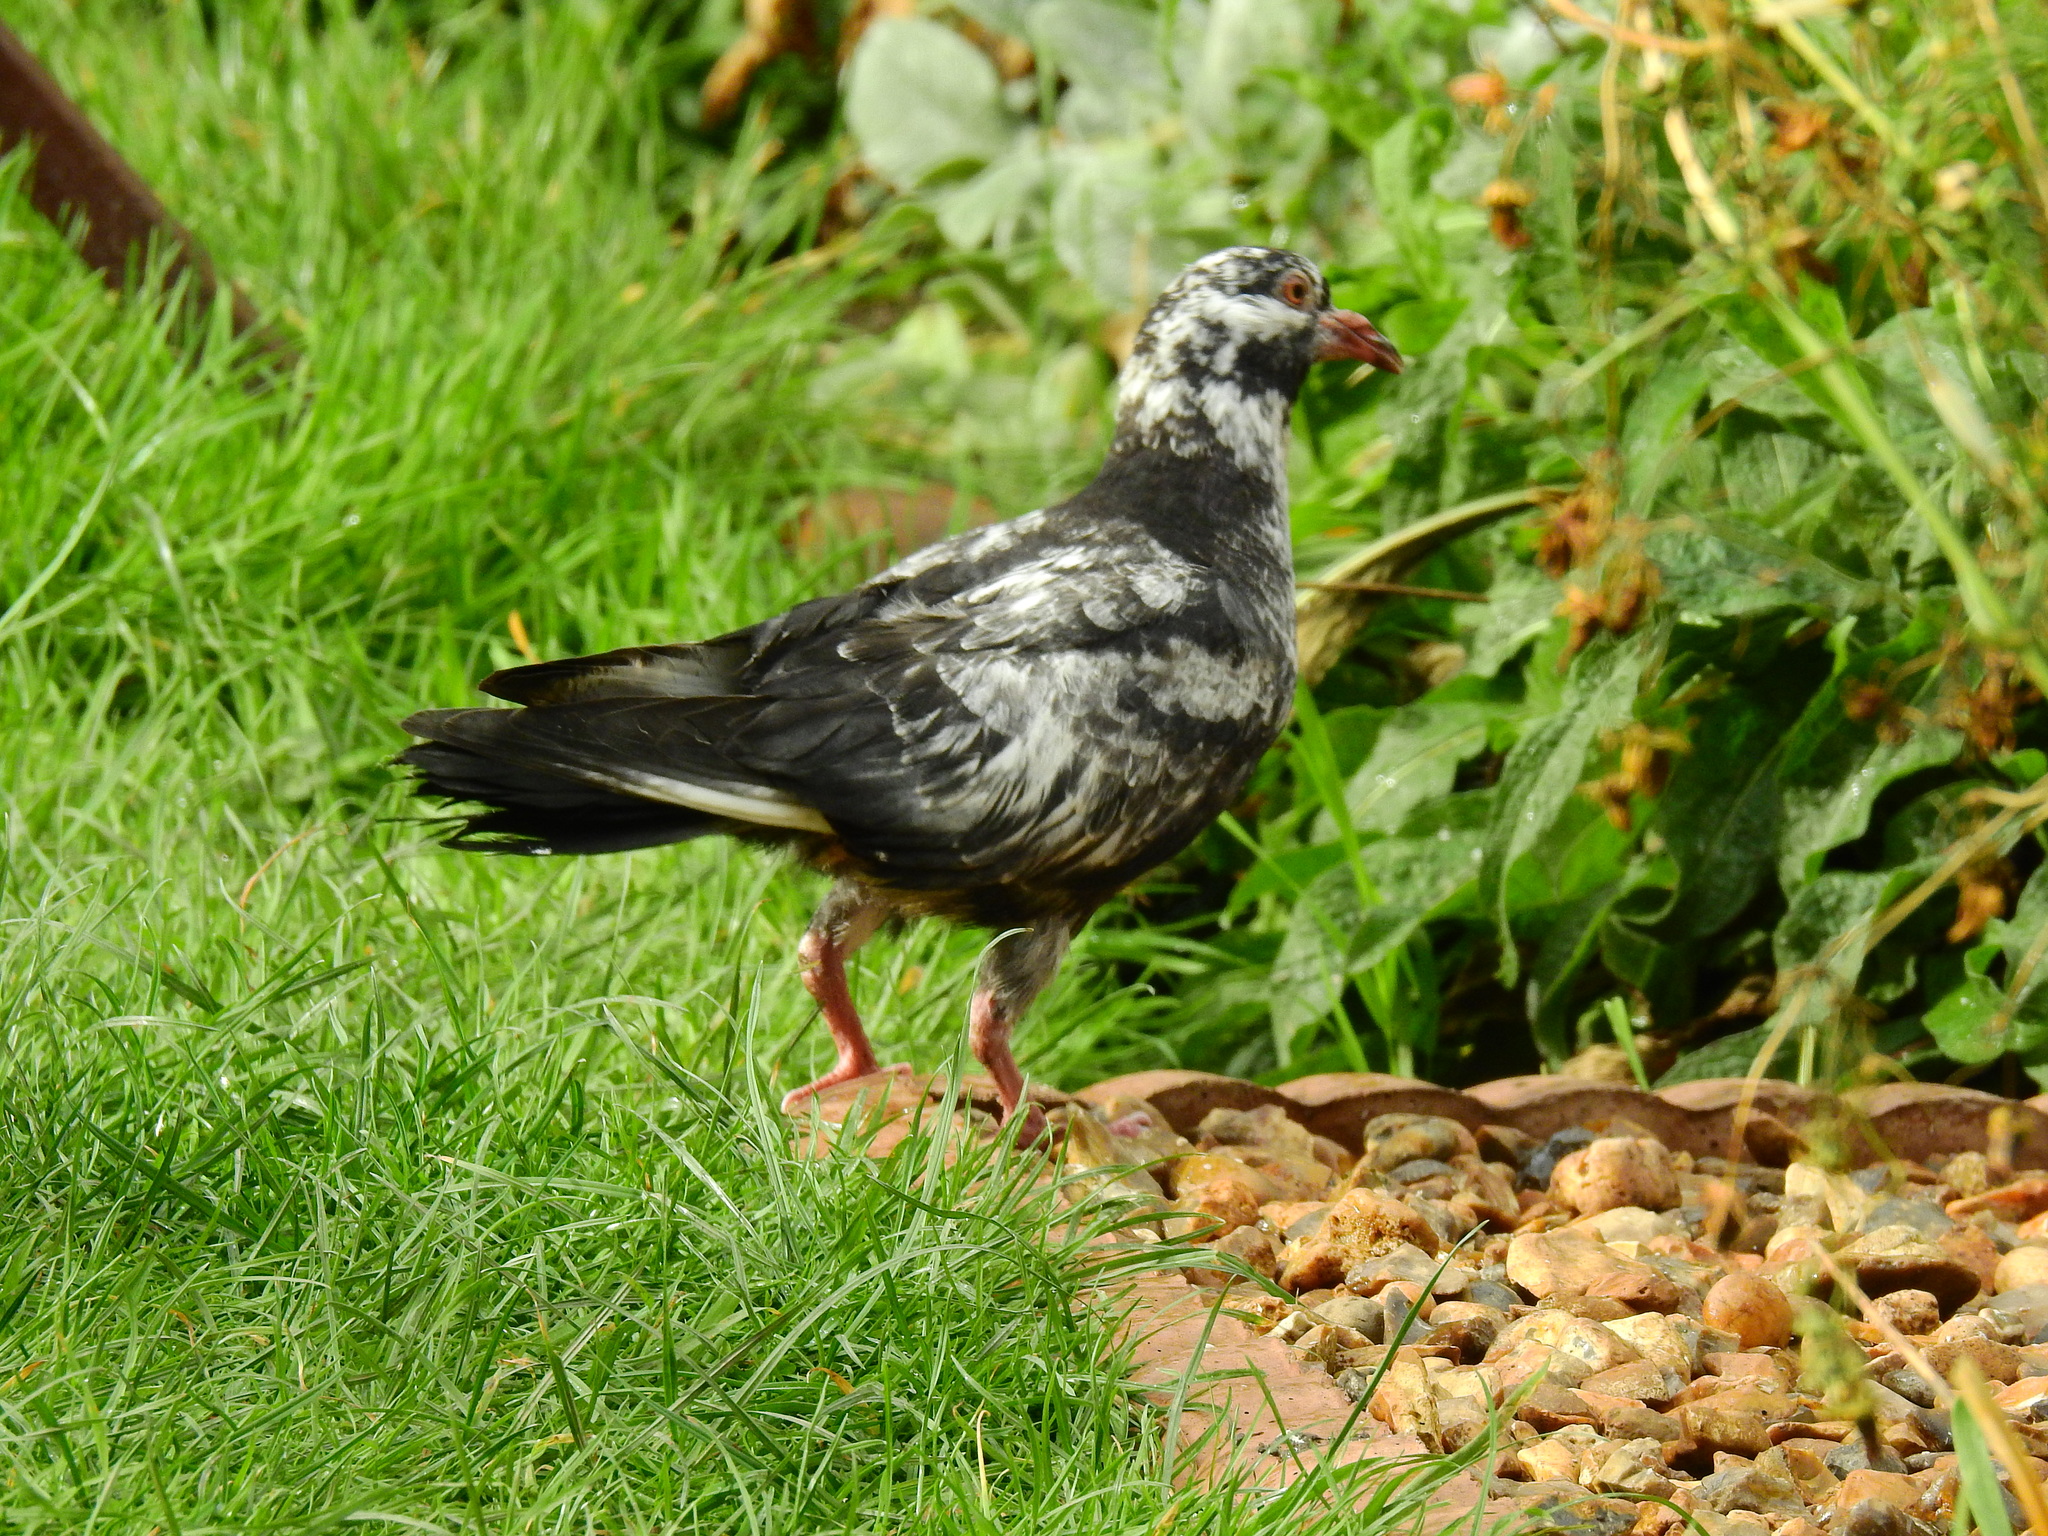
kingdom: Animalia
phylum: Chordata
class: Aves
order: Columbiformes
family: Columbidae
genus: Columba
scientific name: Columba livia
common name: Rock pigeon
